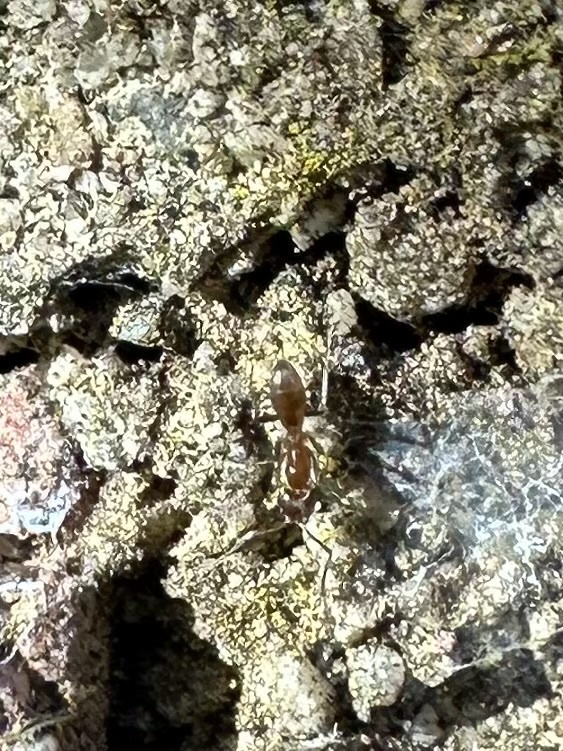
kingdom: Animalia
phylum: Arthropoda
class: Insecta
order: Hymenoptera
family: Formicidae
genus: Linepithema
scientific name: Linepithema humile
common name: Argentine ant
